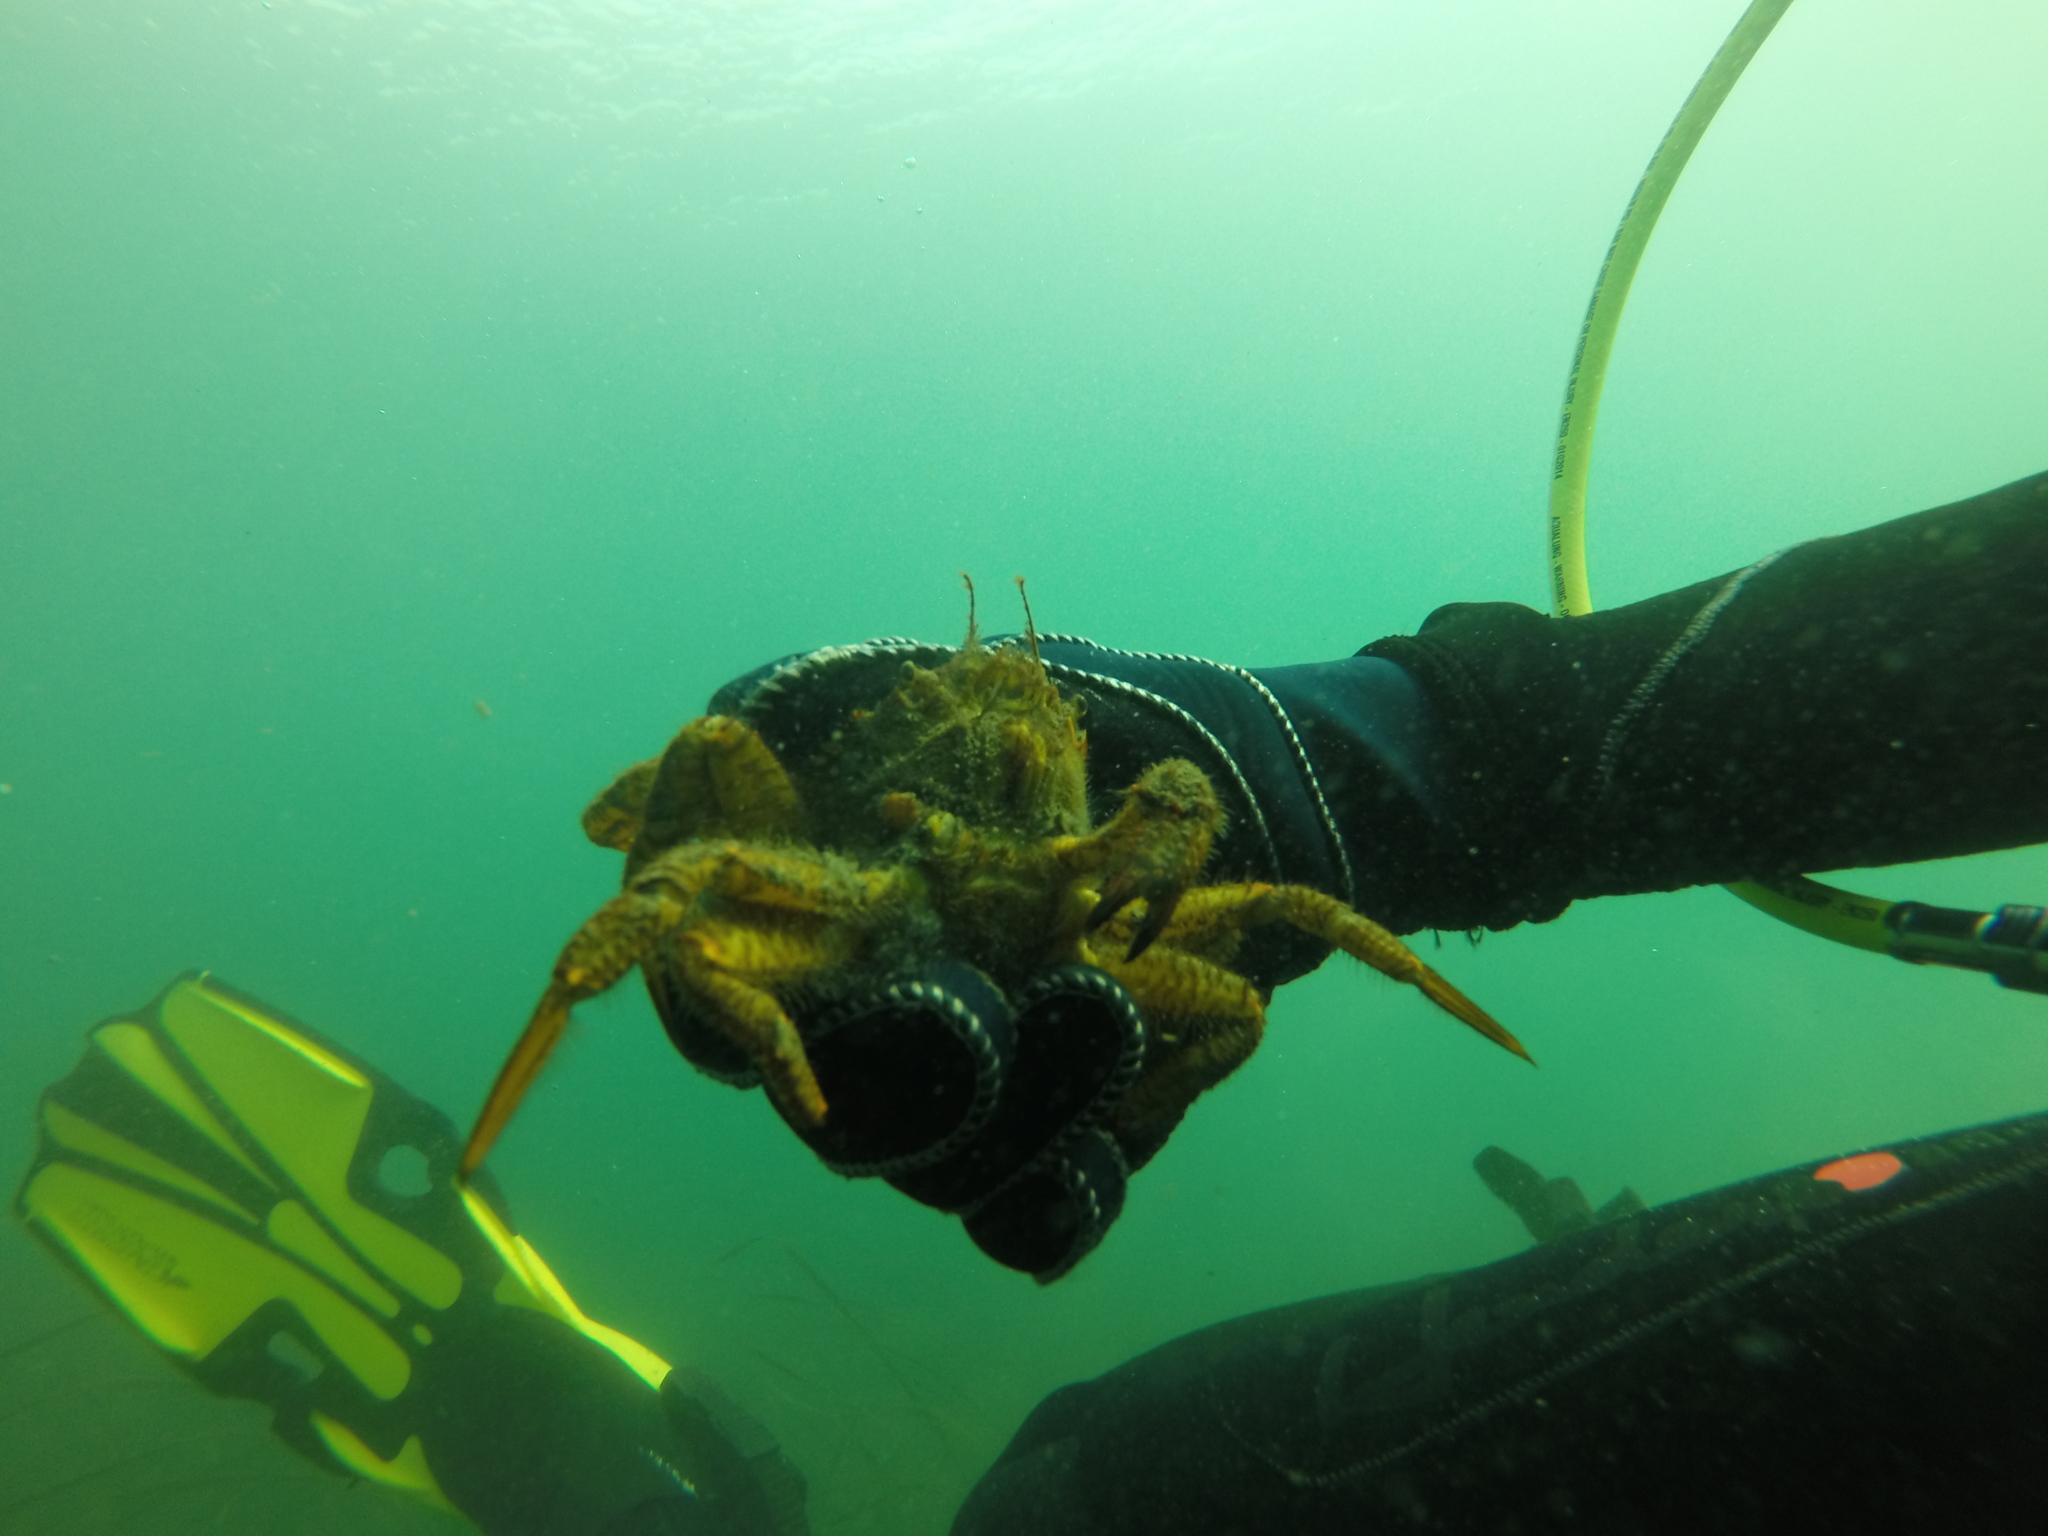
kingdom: Animalia
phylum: Arthropoda
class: Malacostraca
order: Decapoda
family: Cheiragonidae
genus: Telmessus
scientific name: Telmessus cheiragonus
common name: Helmet crab
